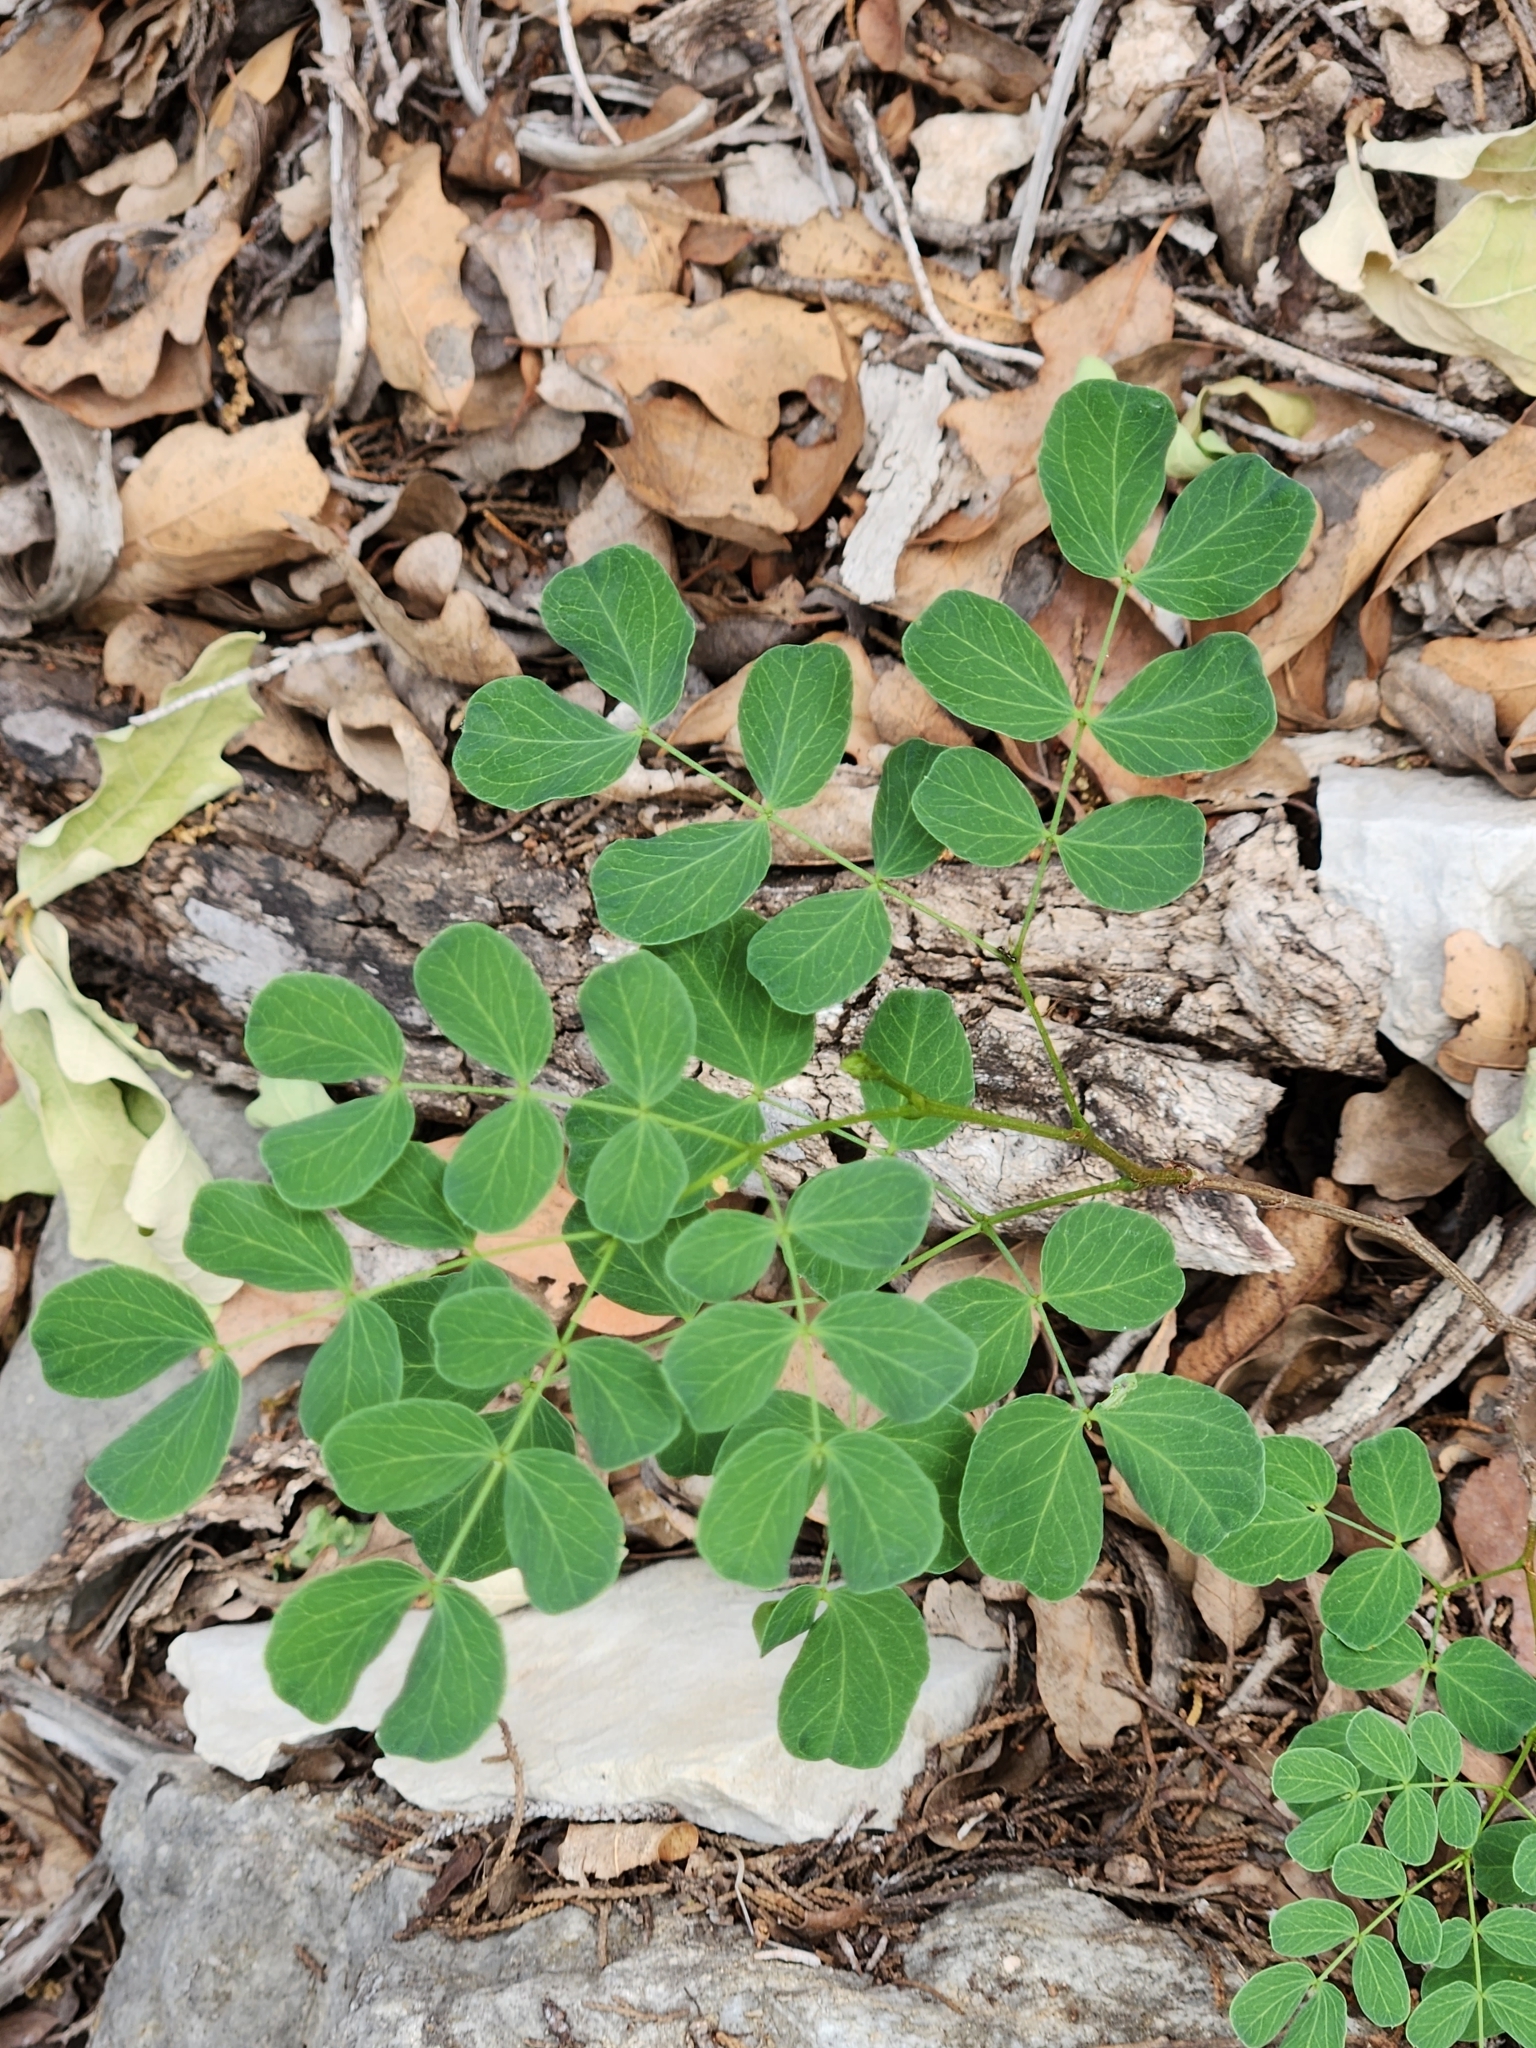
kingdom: Plantae
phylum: Tracheophyta
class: Magnoliopsida
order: Fabales
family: Fabaceae
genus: Leucaena
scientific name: Leucaena retusa
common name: Littleleaf leadtree
